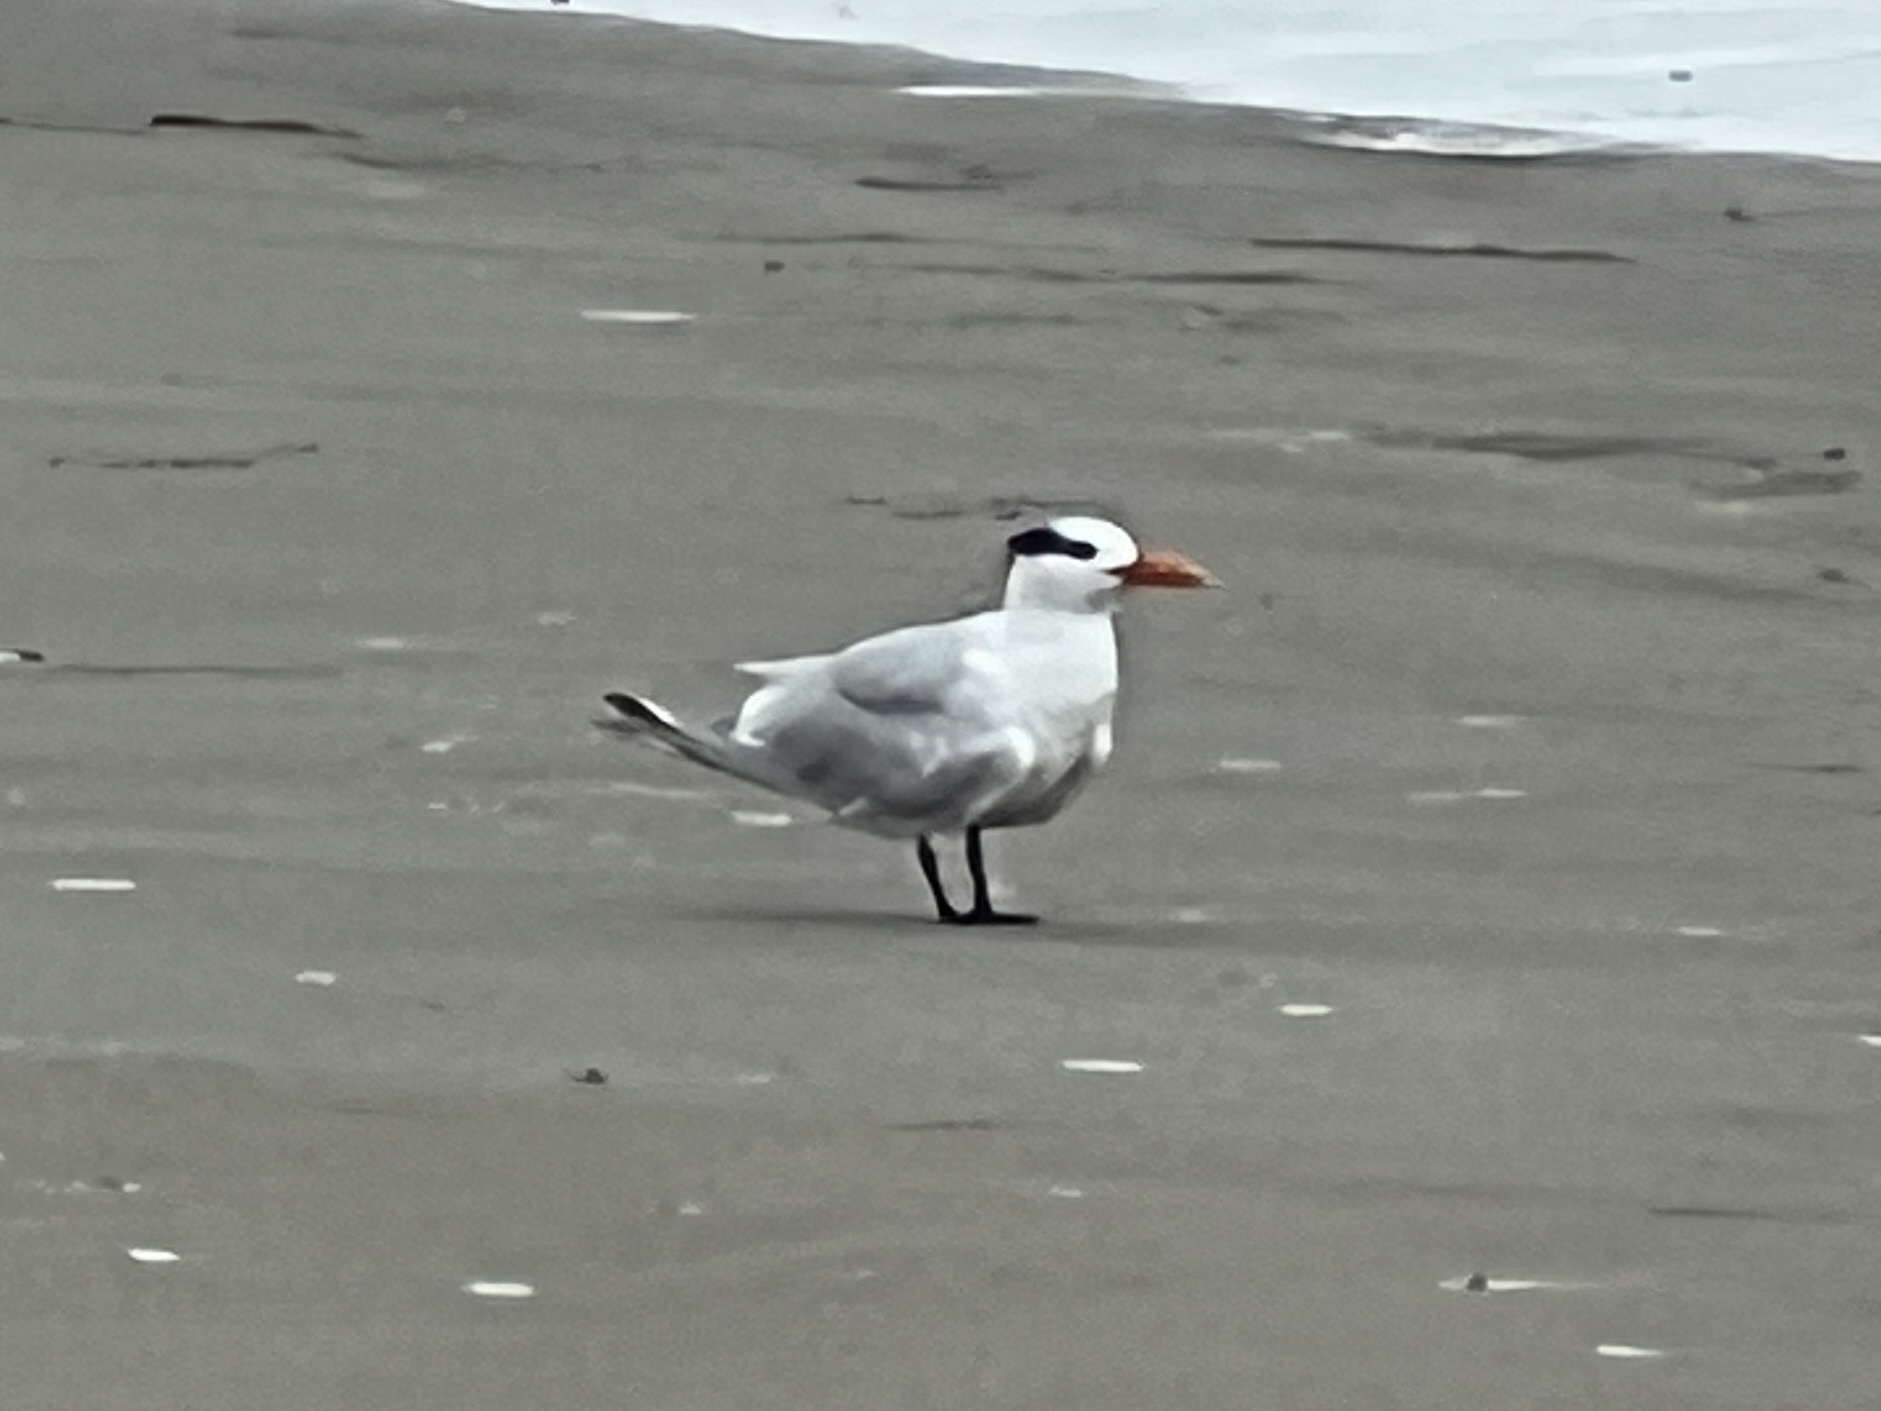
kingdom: Animalia
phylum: Chordata
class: Aves
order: Charadriiformes
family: Laridae
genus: Thalasseus
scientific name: Thalasseus maximus
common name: Royal tern
